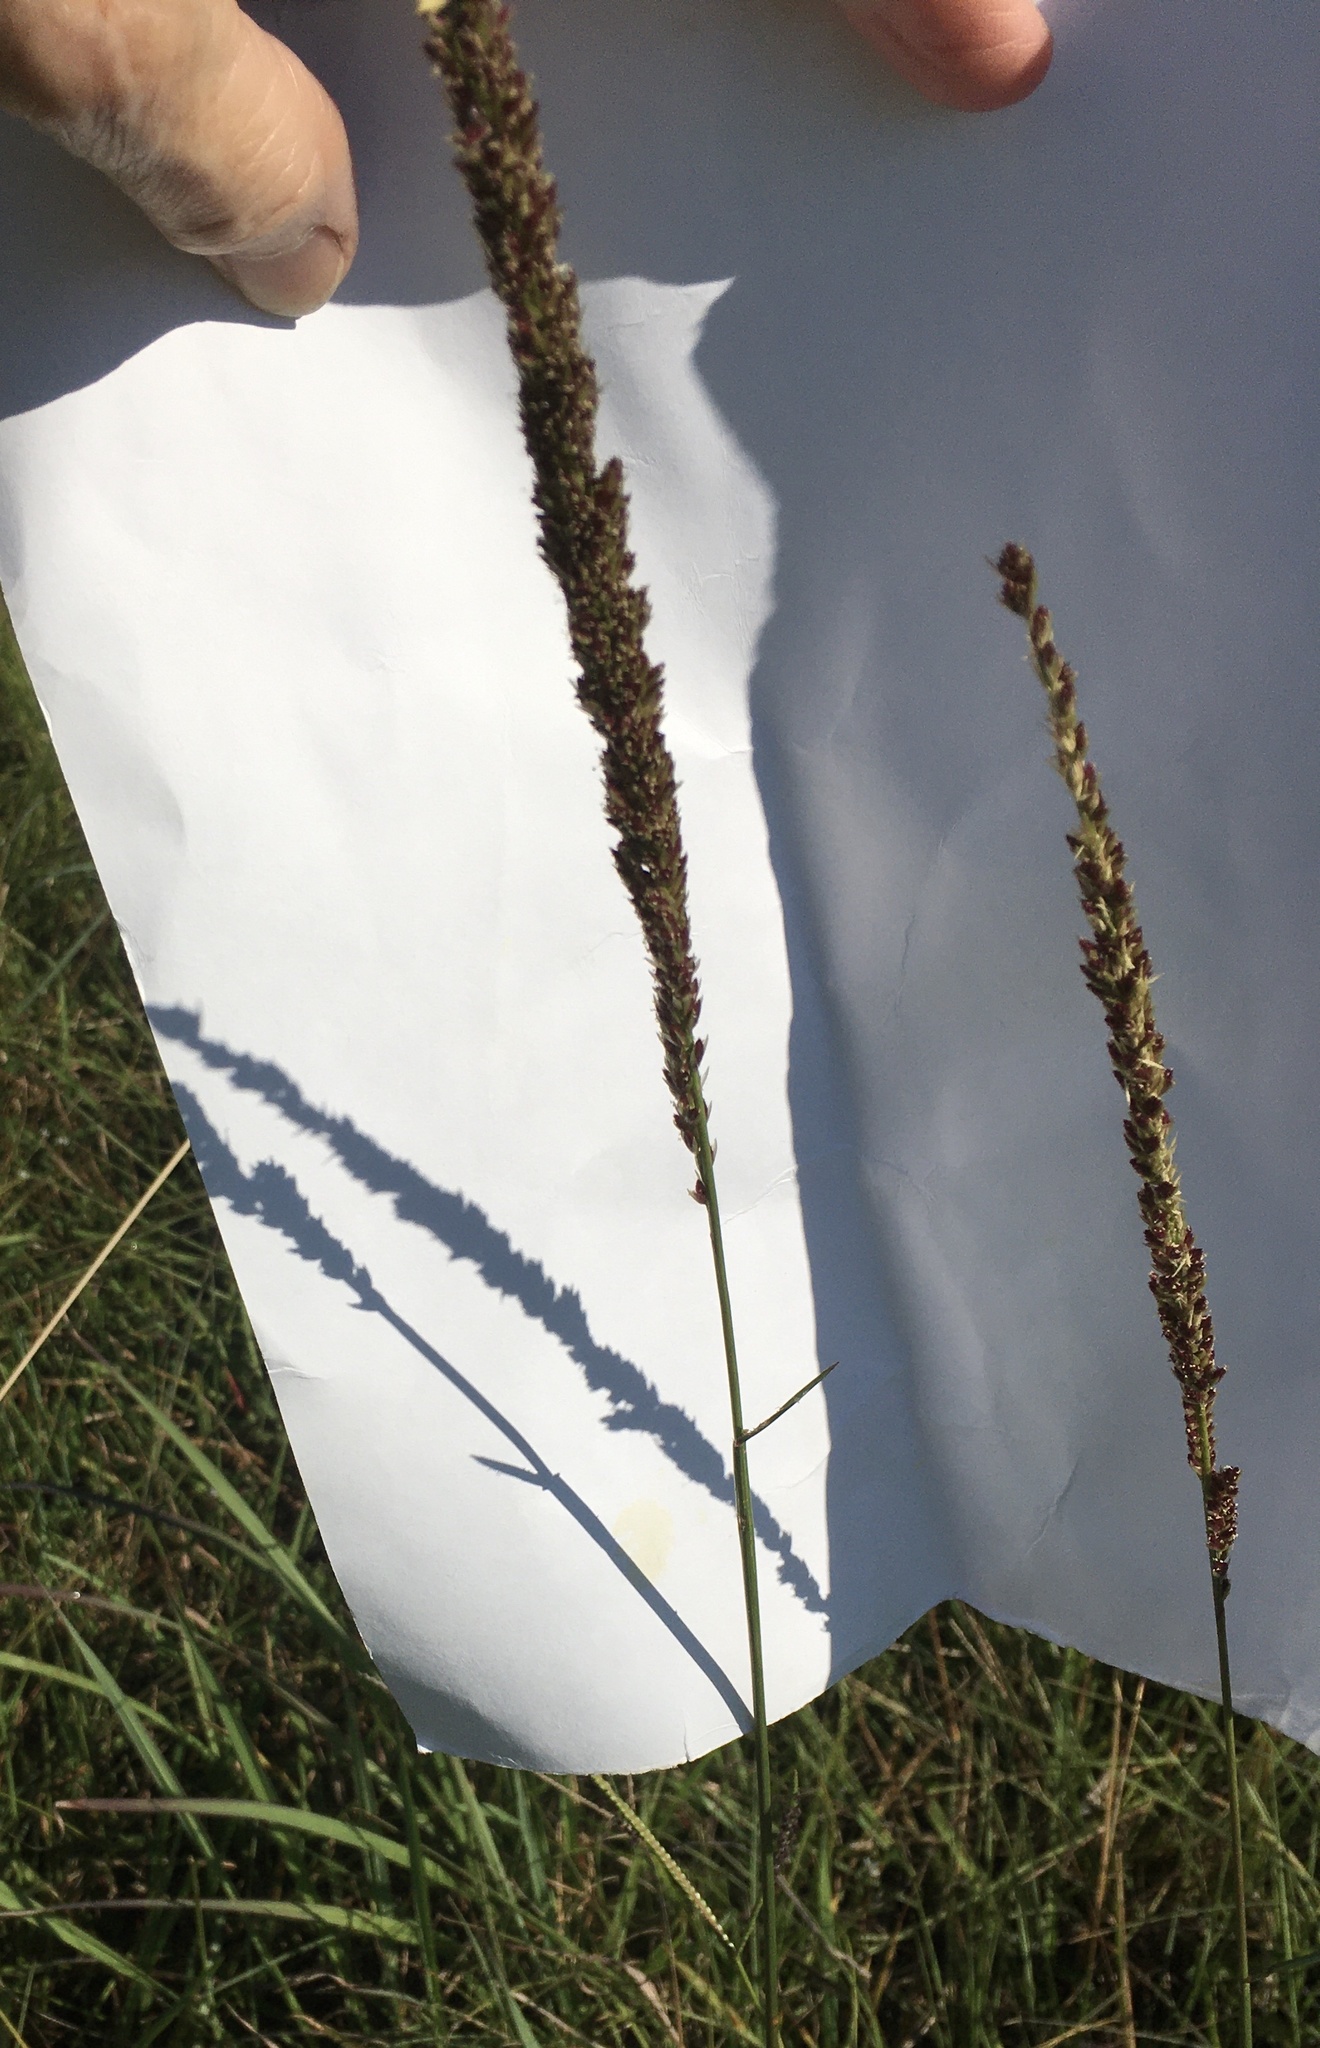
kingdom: Plantae
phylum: Tracheophyta
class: Liliopsida
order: Poales
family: Poaceae
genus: Tridens
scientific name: Tridens strictus
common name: Long-spike tridens
